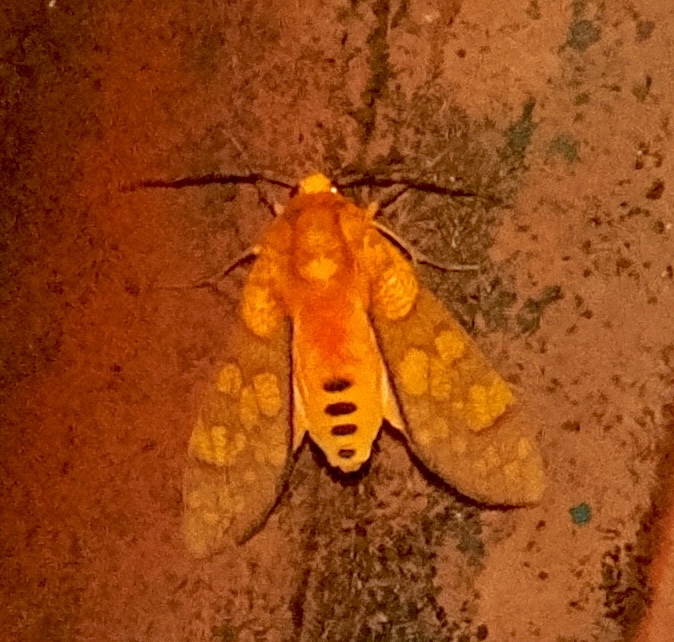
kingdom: Animalia
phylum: Arthropoda
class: Insecta
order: Lepidoptera
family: Erebidae
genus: Elysius
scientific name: Elysius pyrosticta
